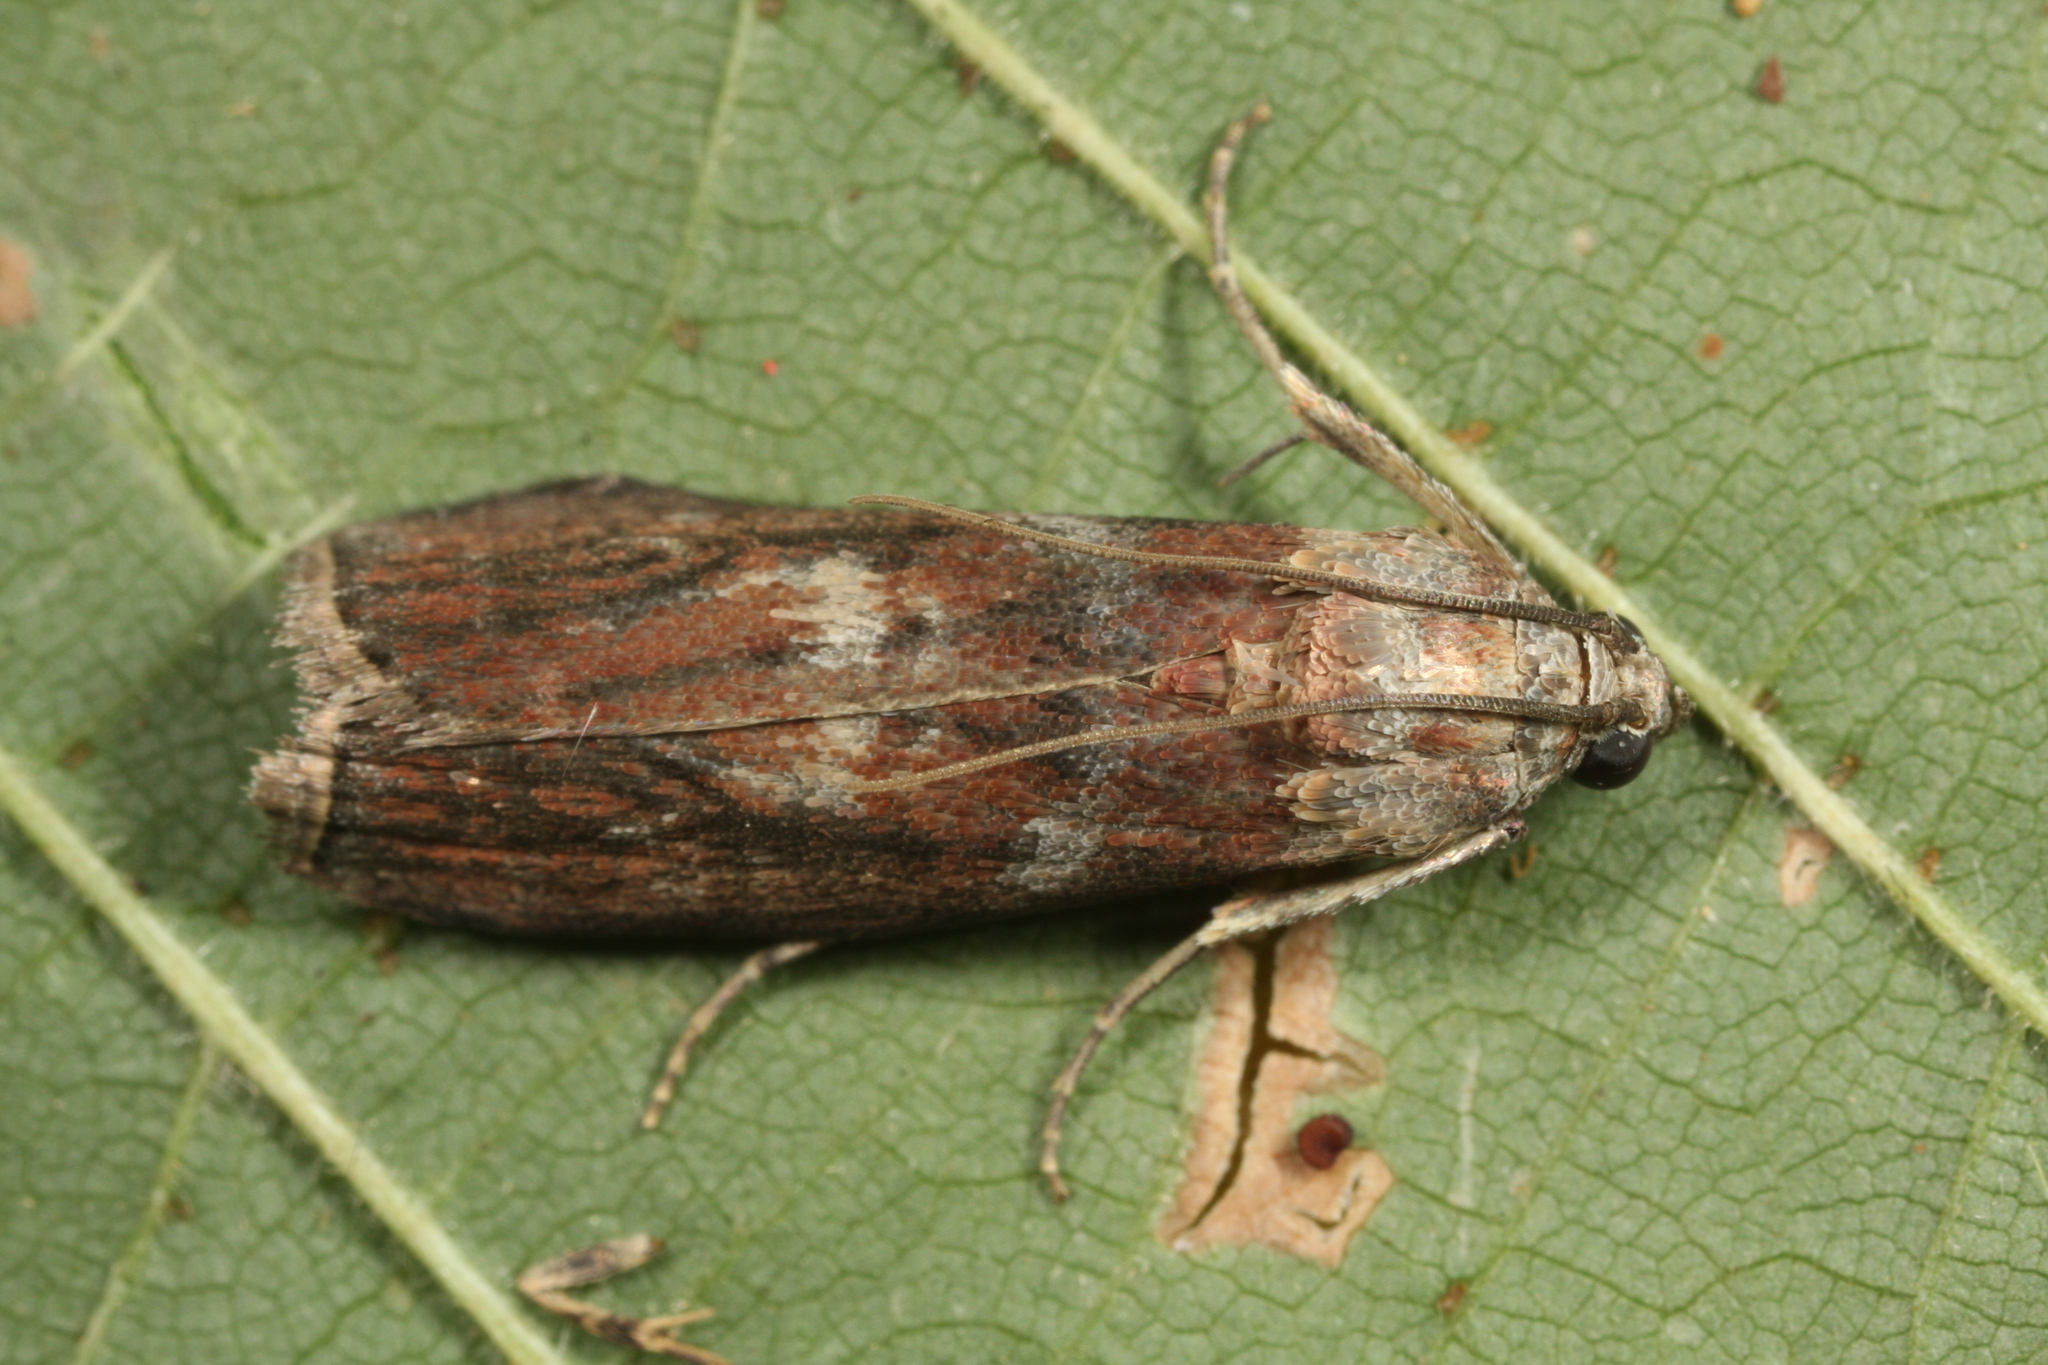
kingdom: Animalia
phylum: Arthropoda
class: Insecta
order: Lepidoptera
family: Pyralidae
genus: Phycita
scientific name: Phycita roborella
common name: Dotted oak knot-horn
